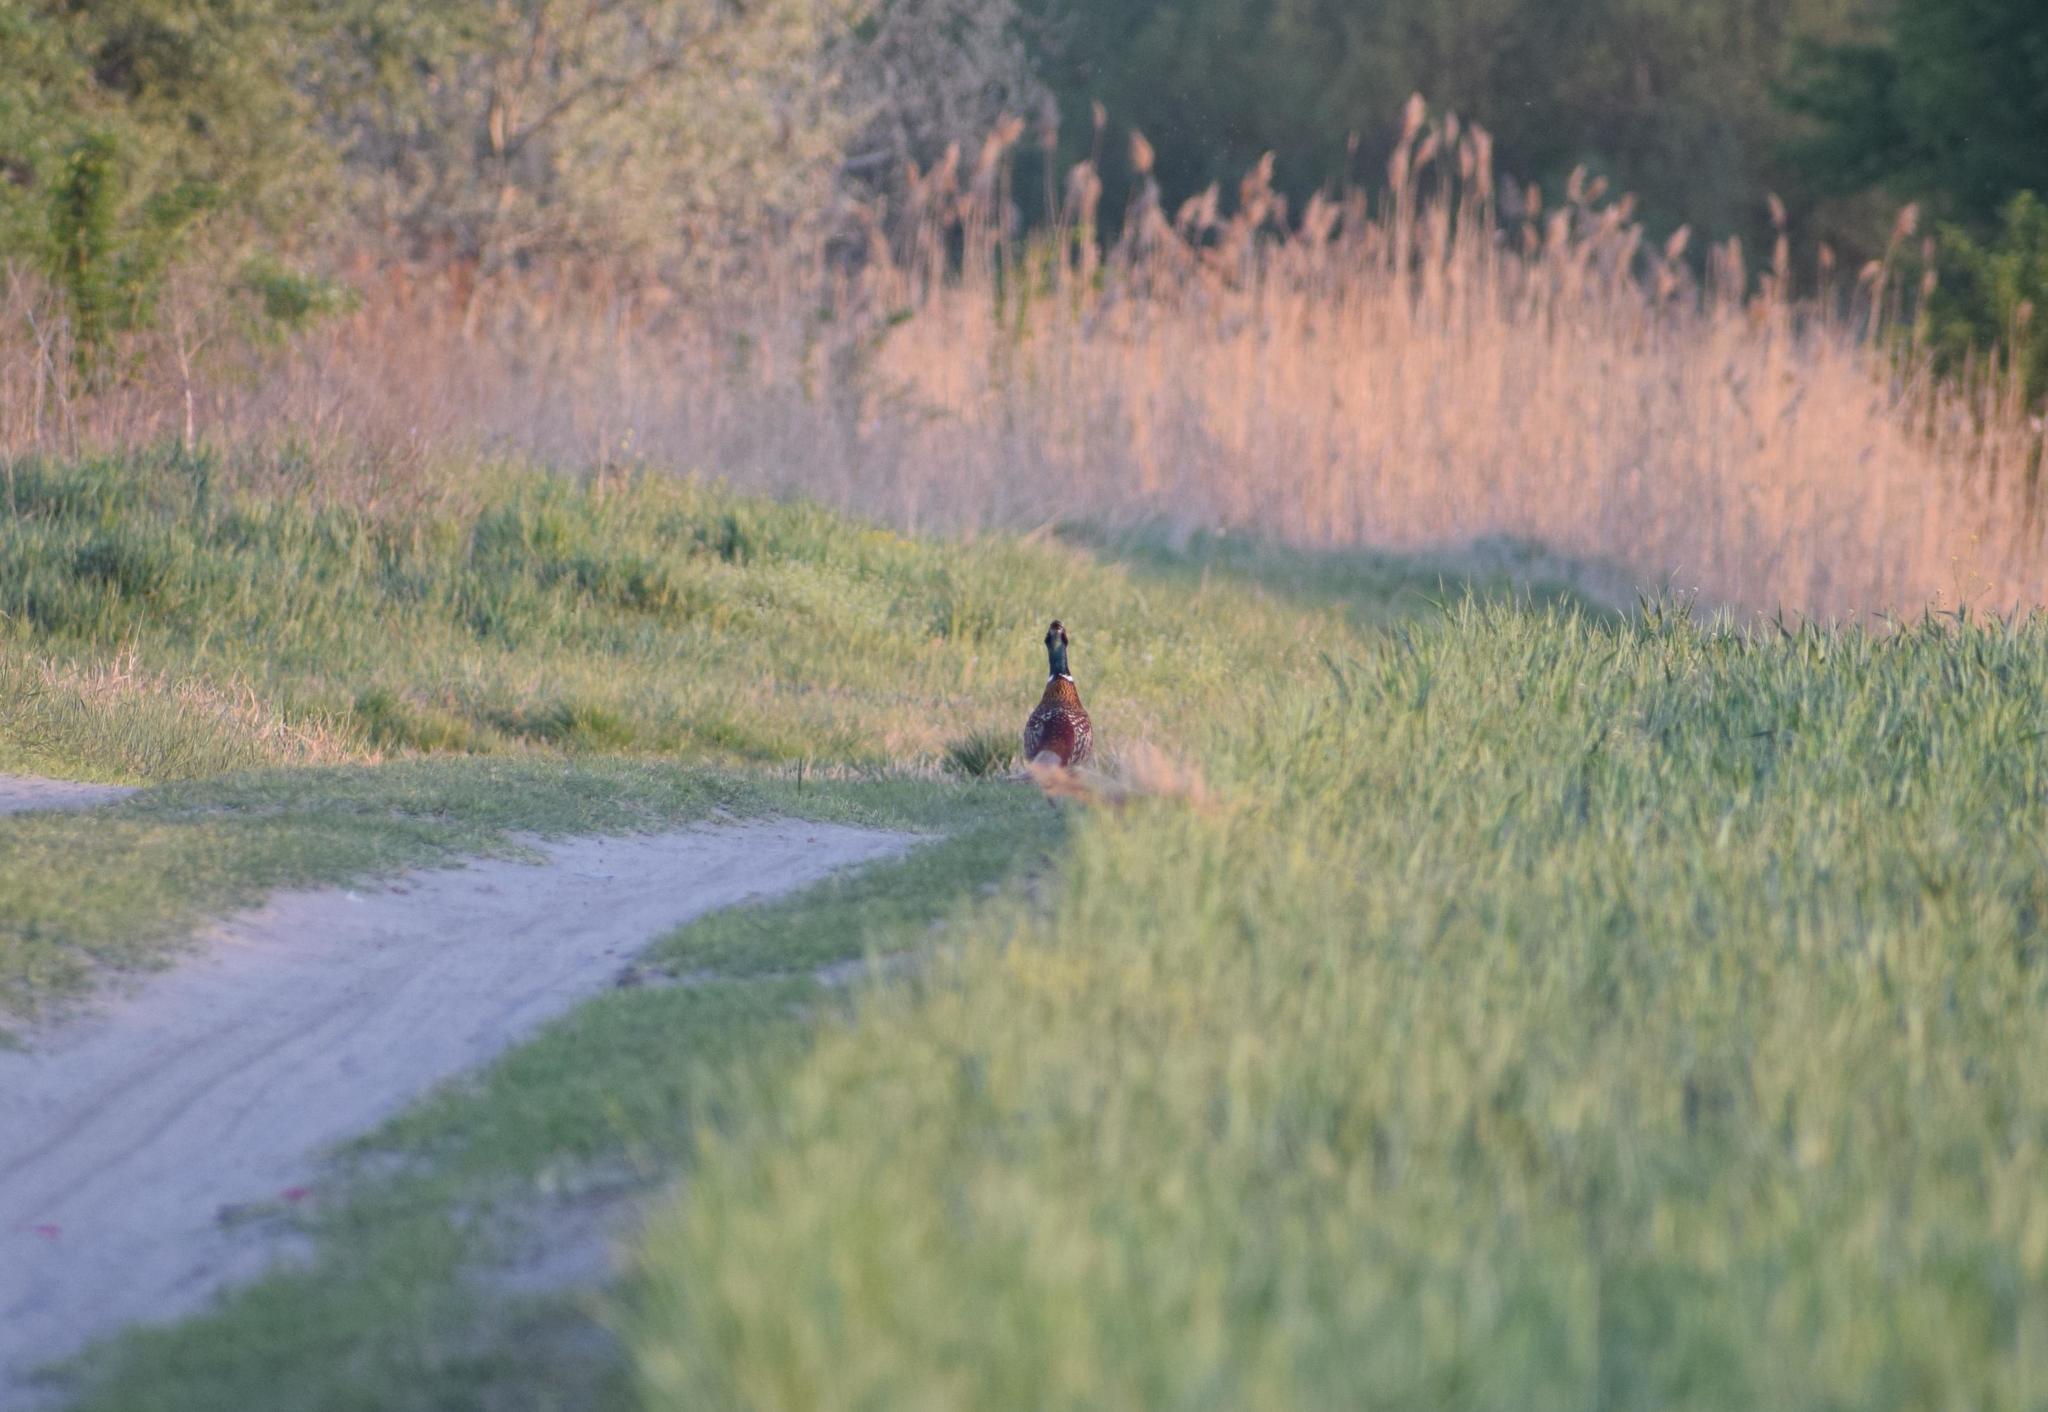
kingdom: Animalia
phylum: Chordata
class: Aves
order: Galliformes
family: Phasianidae
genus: Phasianus
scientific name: Phasianus colchicus
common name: Common pheasant
